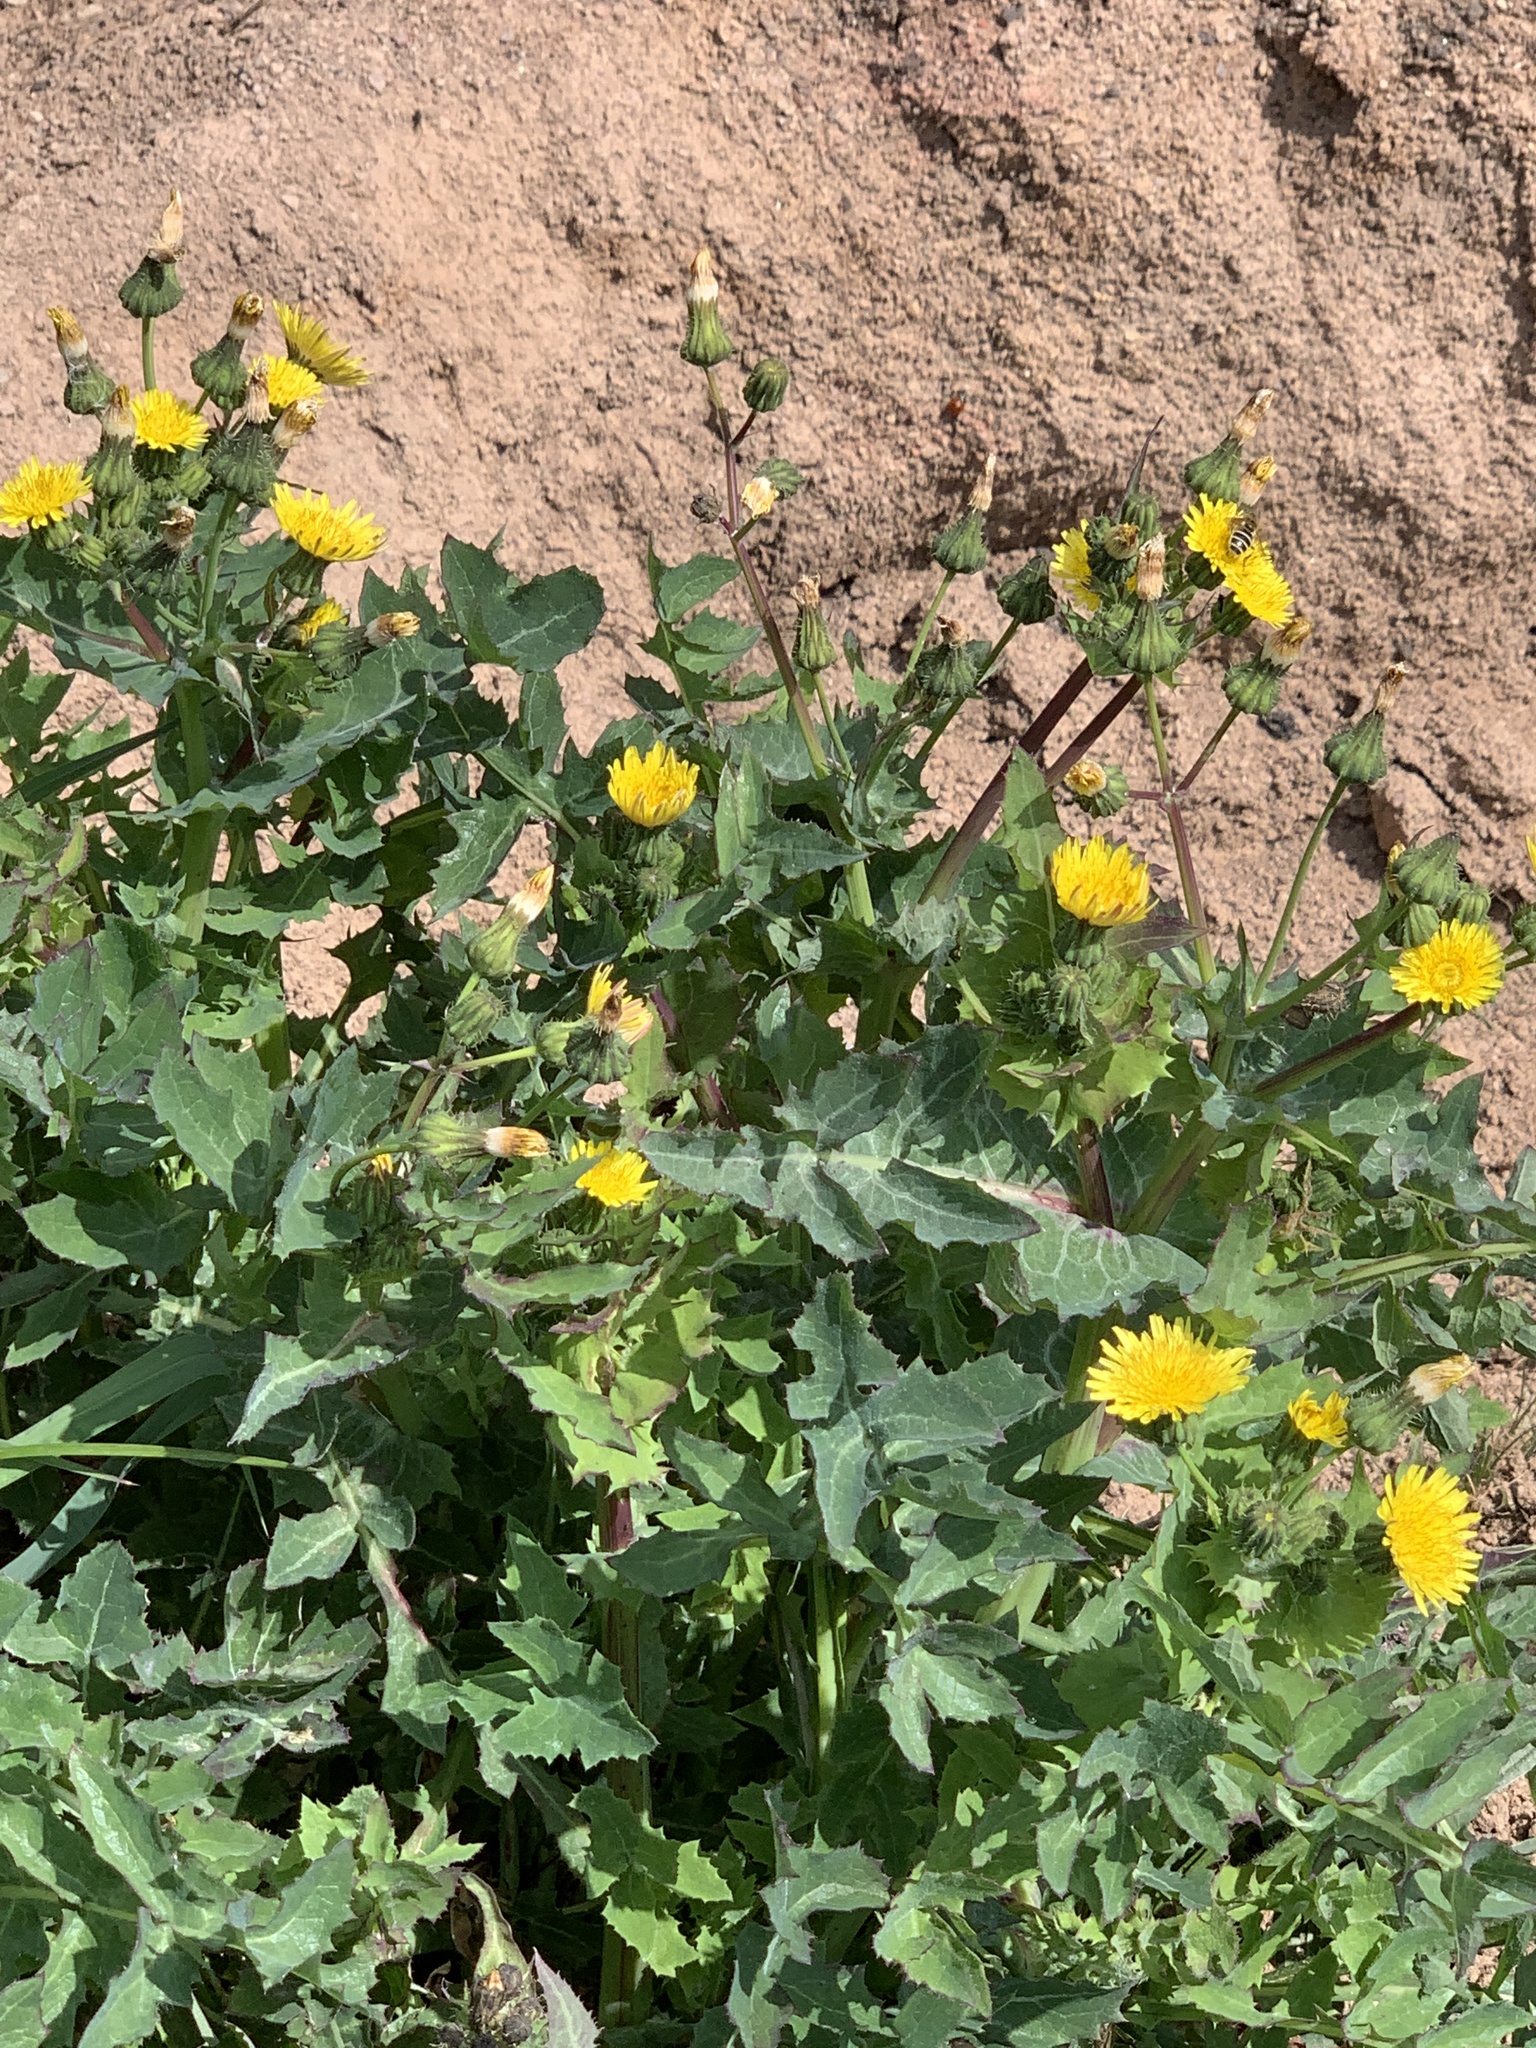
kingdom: Plantae
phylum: Tracheophyta
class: Magnoliopsida
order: Asterales
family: Asteraceae
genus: Sonchus
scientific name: Sonchus oleraceus
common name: Common sowthistle
